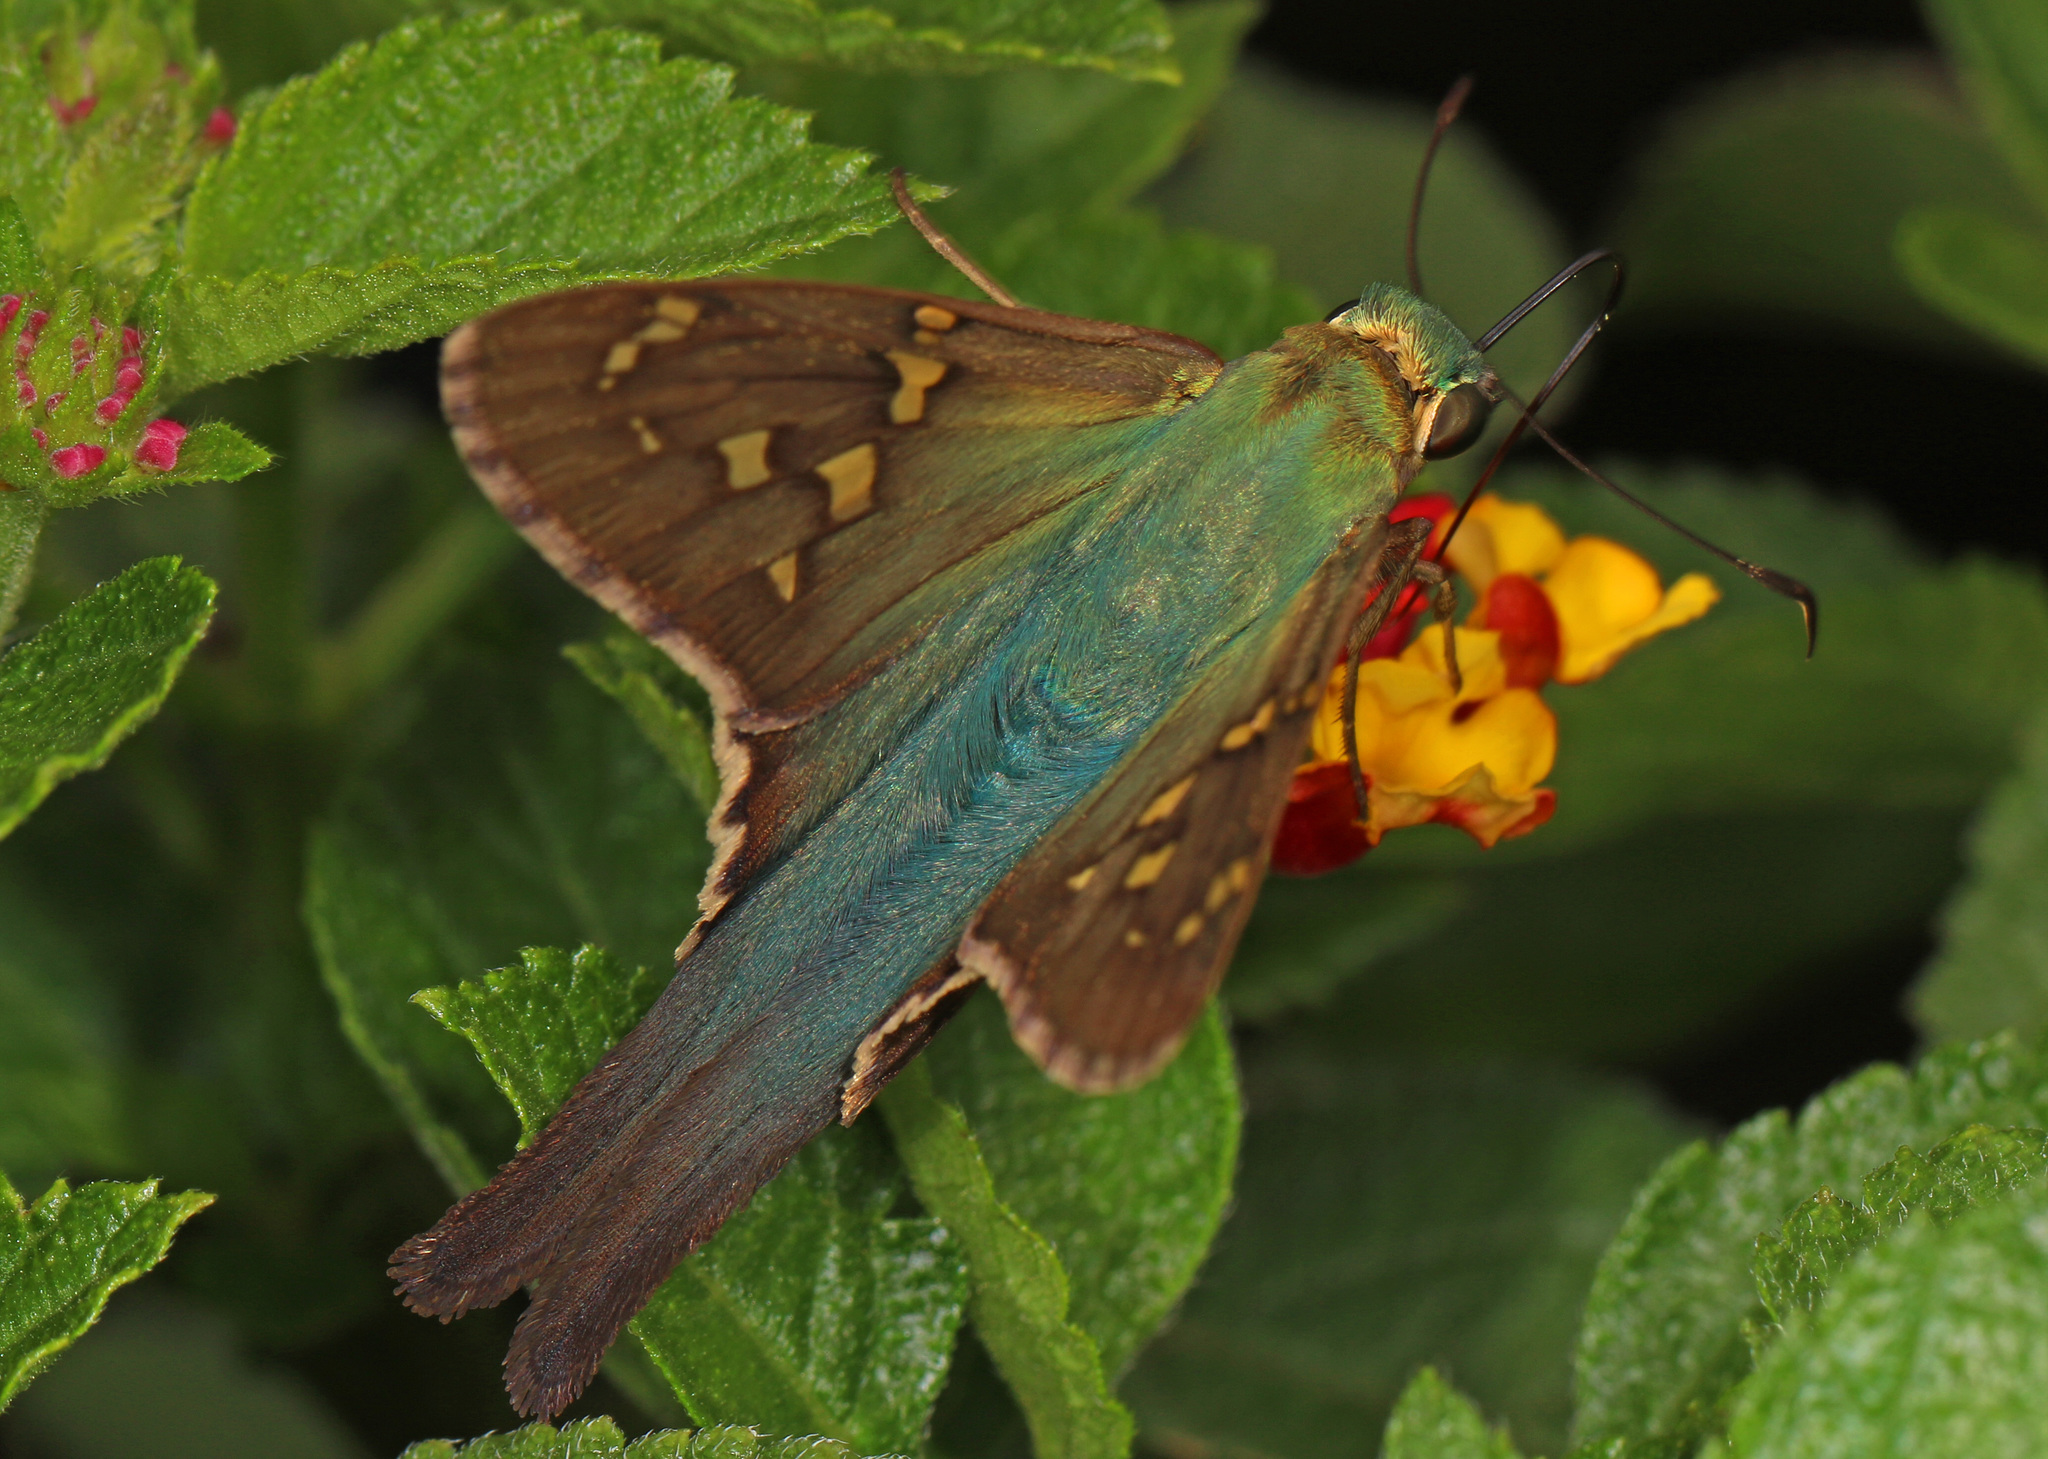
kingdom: Animalia
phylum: Arthropoda
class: Insecta
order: Lepidoptera
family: Hesperiidae
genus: Urbanus
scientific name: Urbanus proteus
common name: Long-tailed skipper
